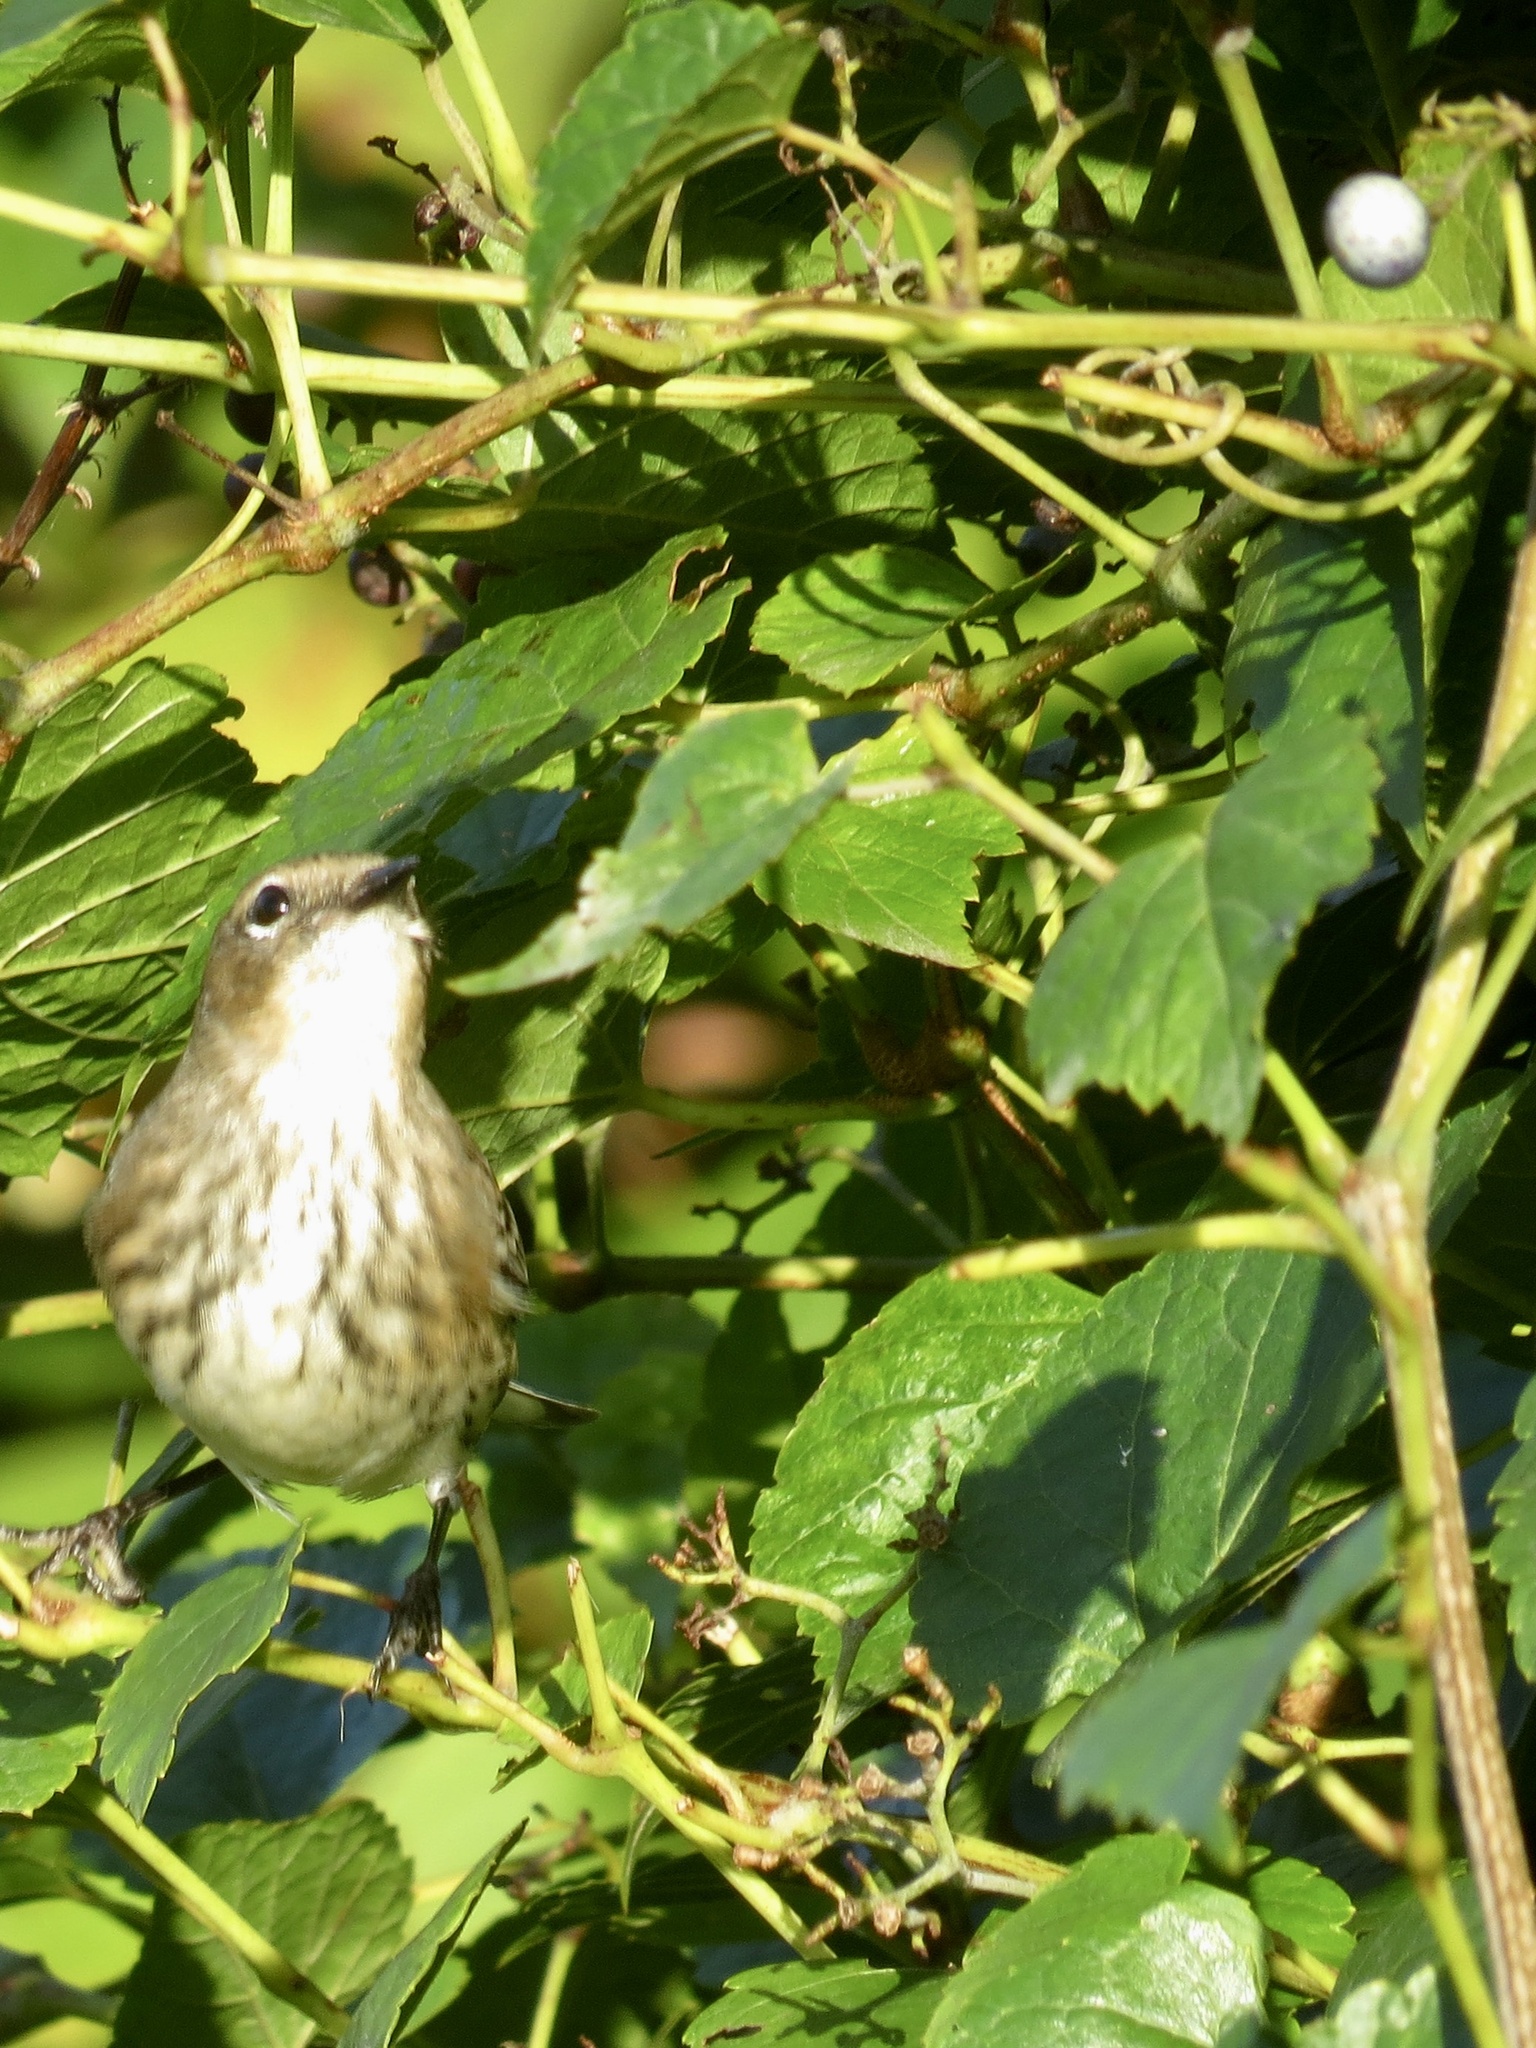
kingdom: Animalia
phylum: Chordata
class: Aves
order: Passeriformes
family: Parulidae
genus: Setophaga
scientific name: Setophaga coronata
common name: Myrtle warbler
